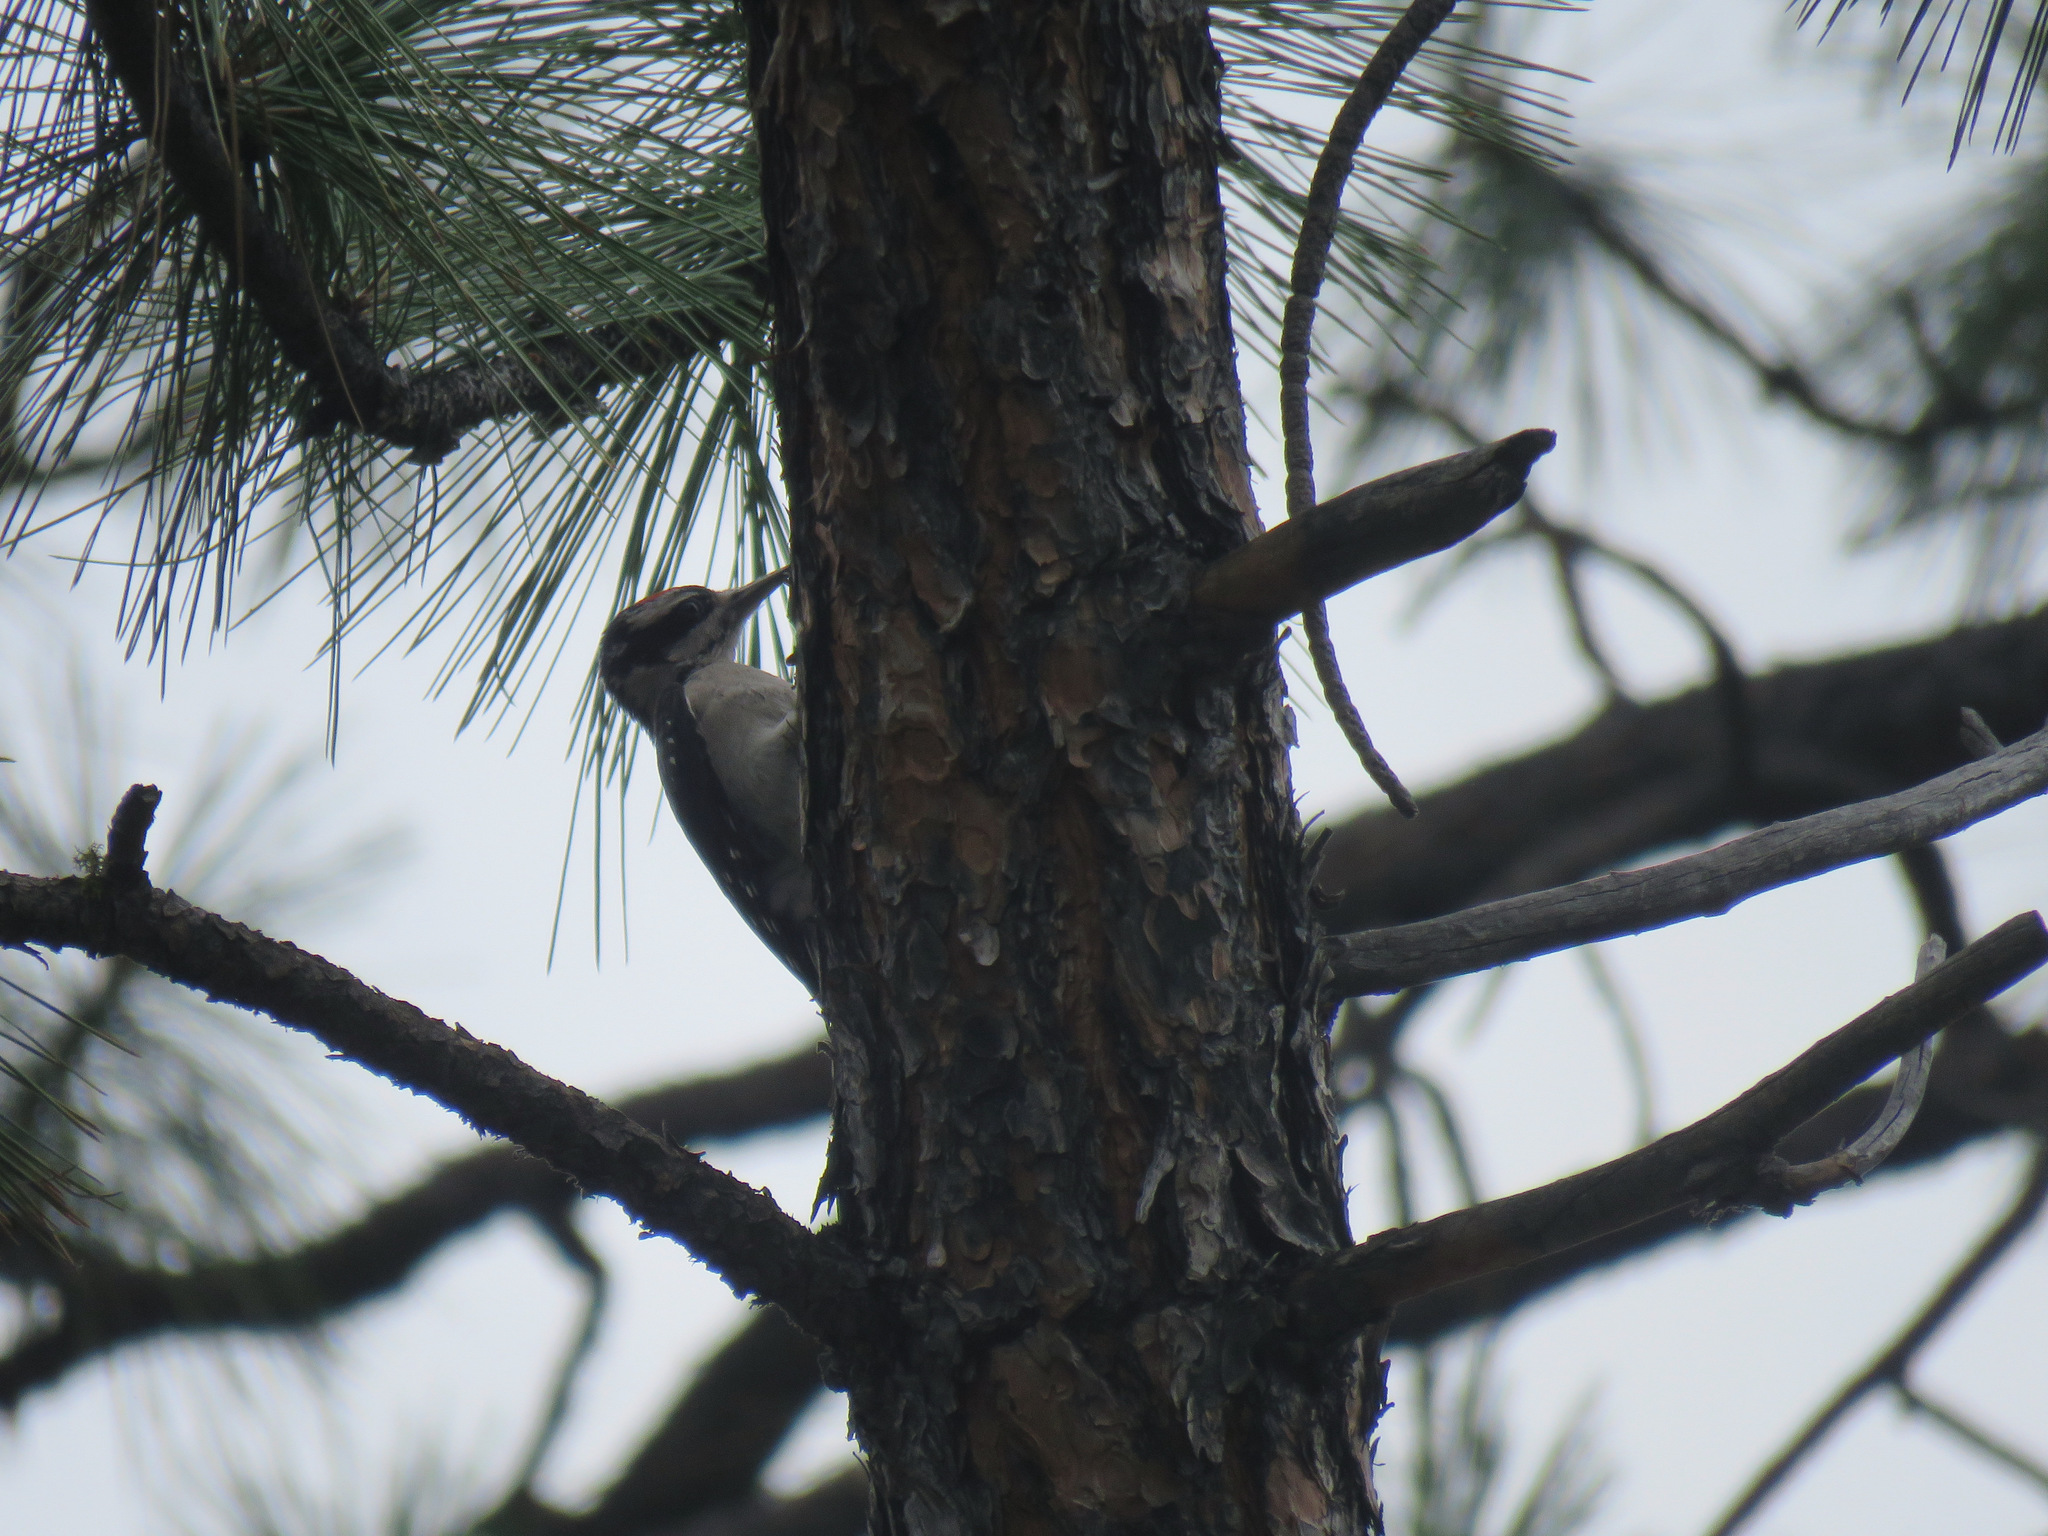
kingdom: Animalia
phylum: Chordata
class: Aves
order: Piciformes
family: Picidae
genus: Leuconotopicus
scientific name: Leuconotopicus villosus
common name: Hairy woodpecker
